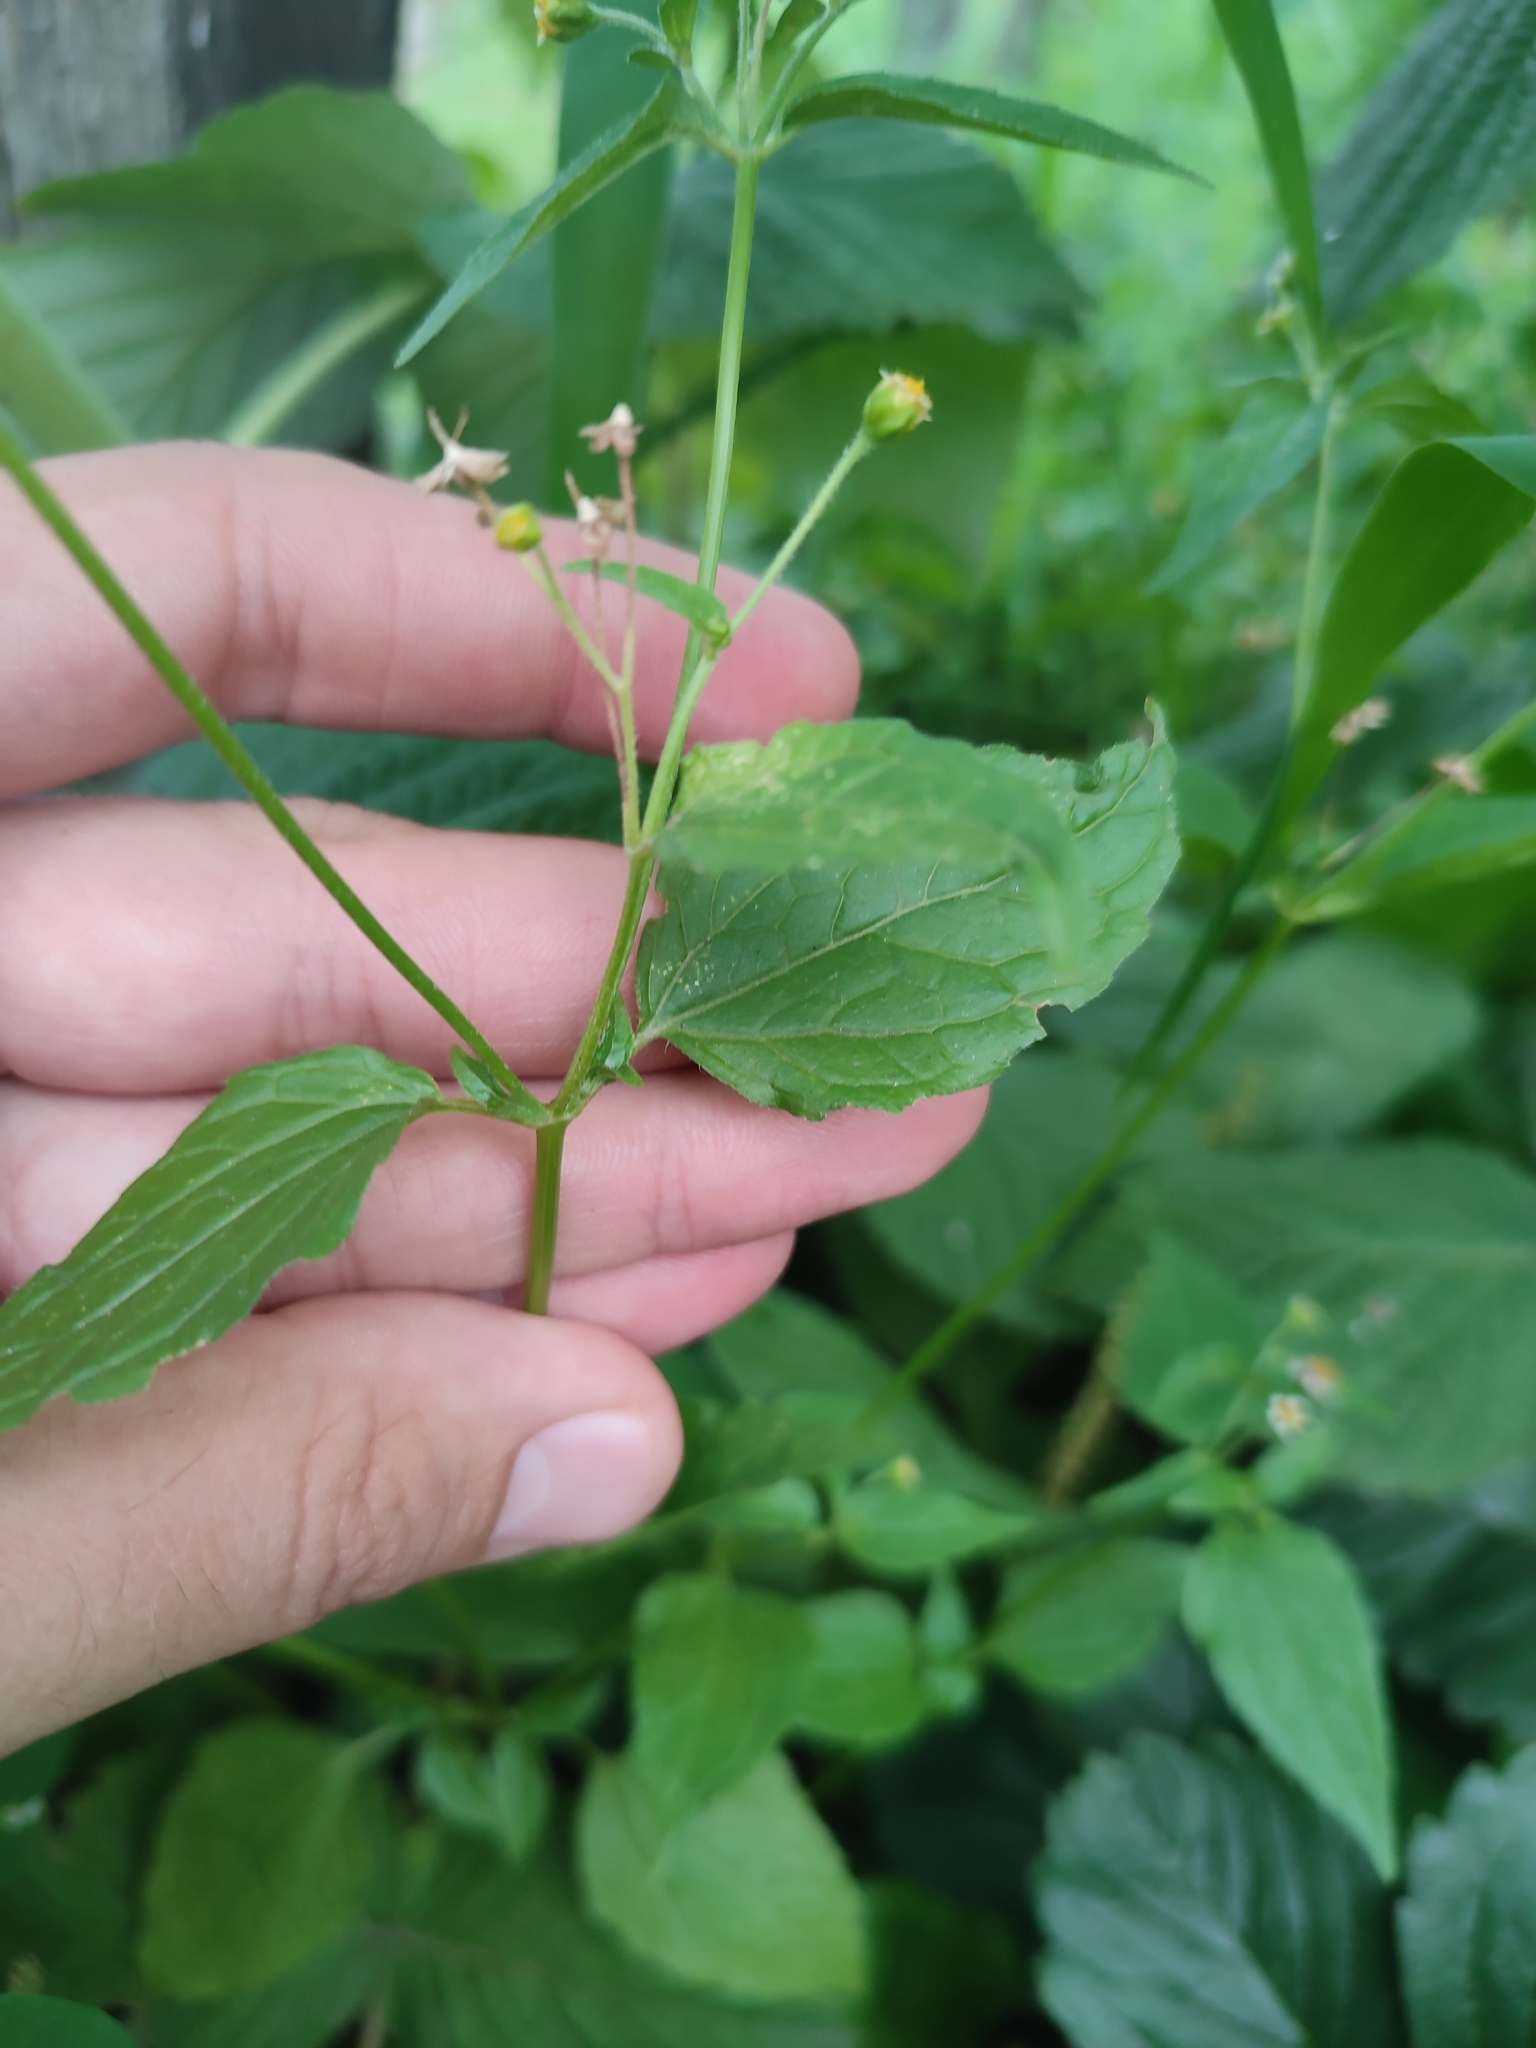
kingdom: Plantae
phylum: Tracheophyta
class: Magnoliopsida
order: Asterales
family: Asteraceae
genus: Galinsoga
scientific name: Galinsoga parviflora
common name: Gallant soldier
